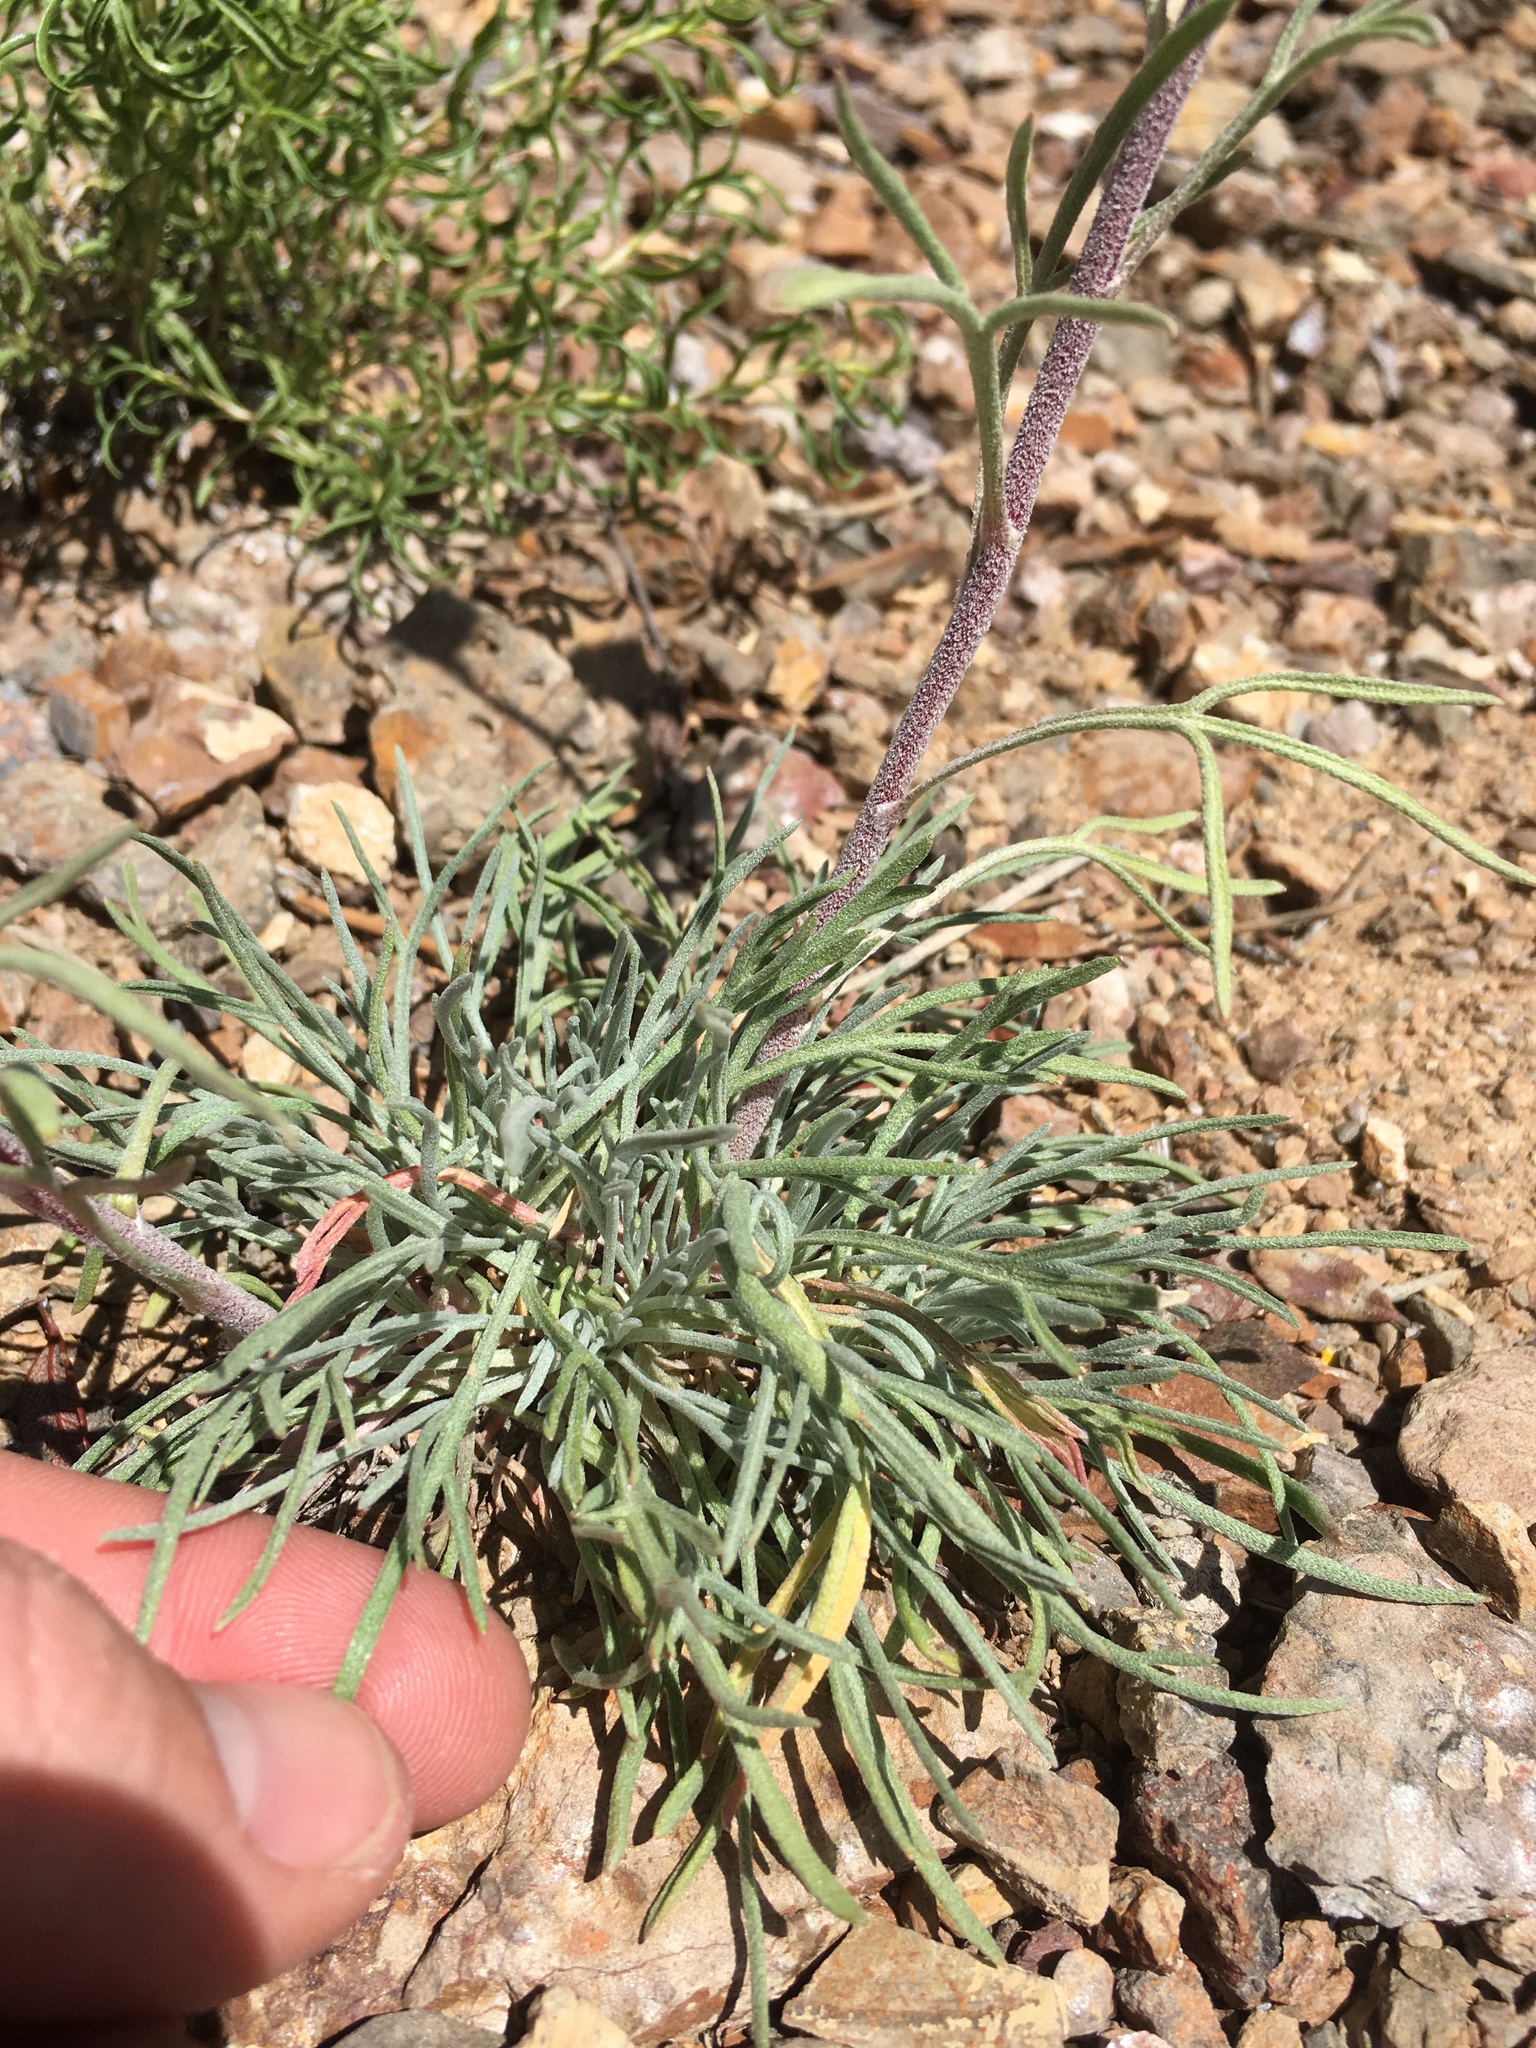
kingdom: Plantae
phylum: Tracheophyta
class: Magnoliopsida
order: Asterales
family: Asteraceae
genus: Hymenoxys
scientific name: Hymenoxys cooperi
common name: Cooper's bitterweed
